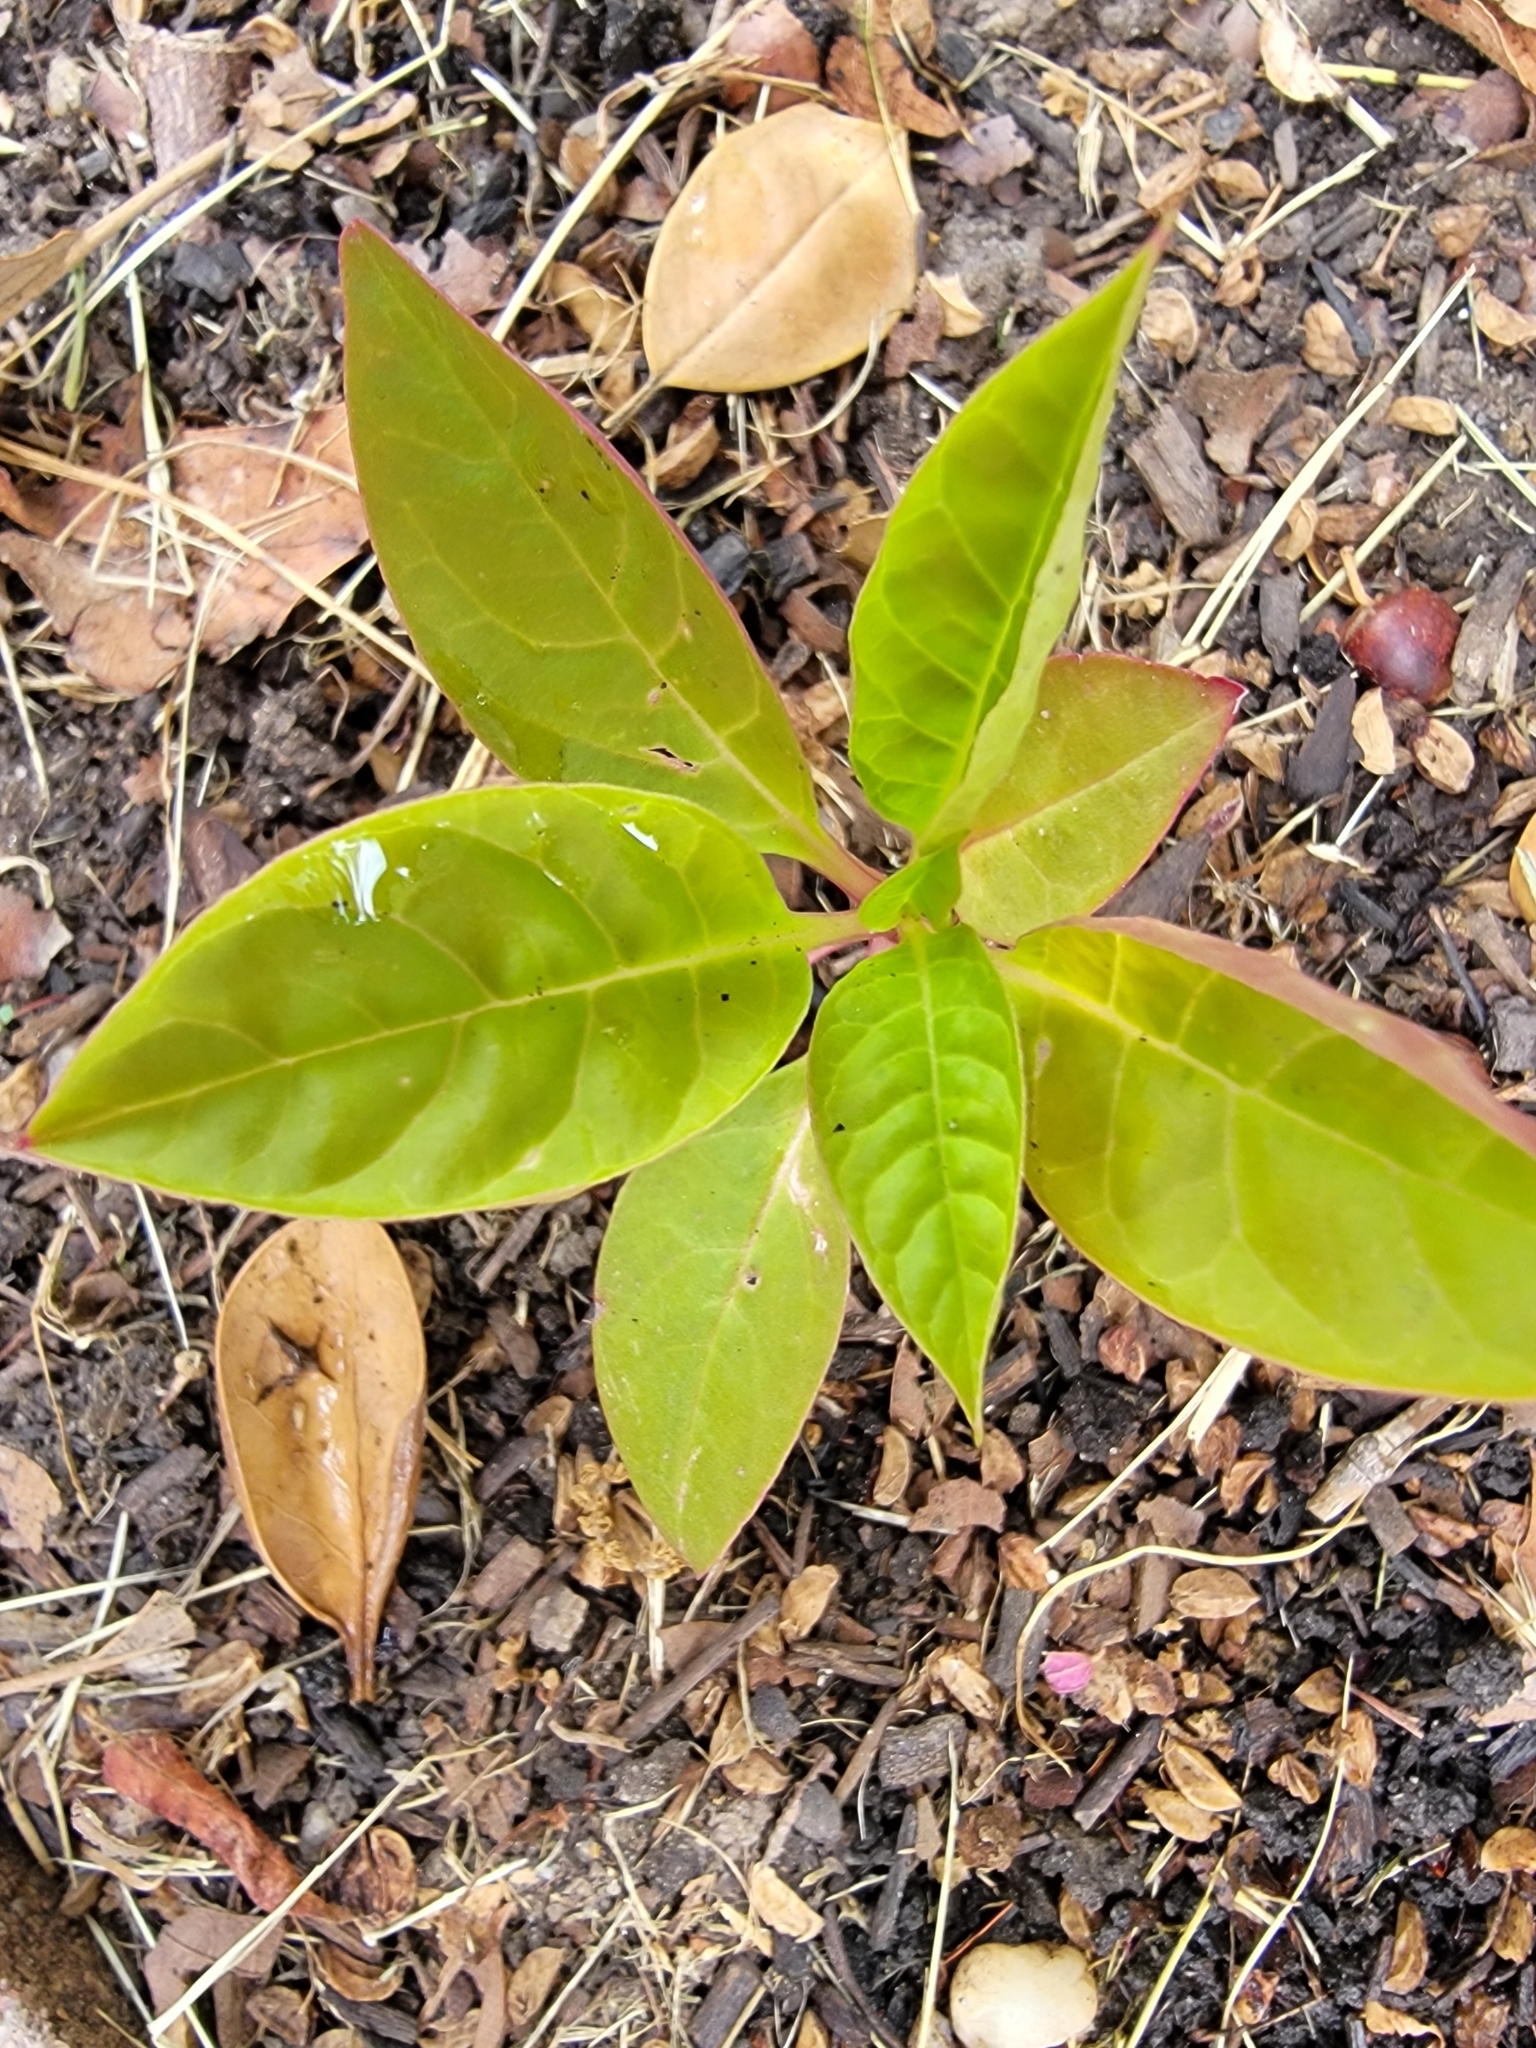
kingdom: Plantae
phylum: Tracheophyta
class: Magnoliopsida
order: Caryophyllales
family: Phytolaccaceae
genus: Phytolacca
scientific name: Phytolacca americana
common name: American pokeweed
